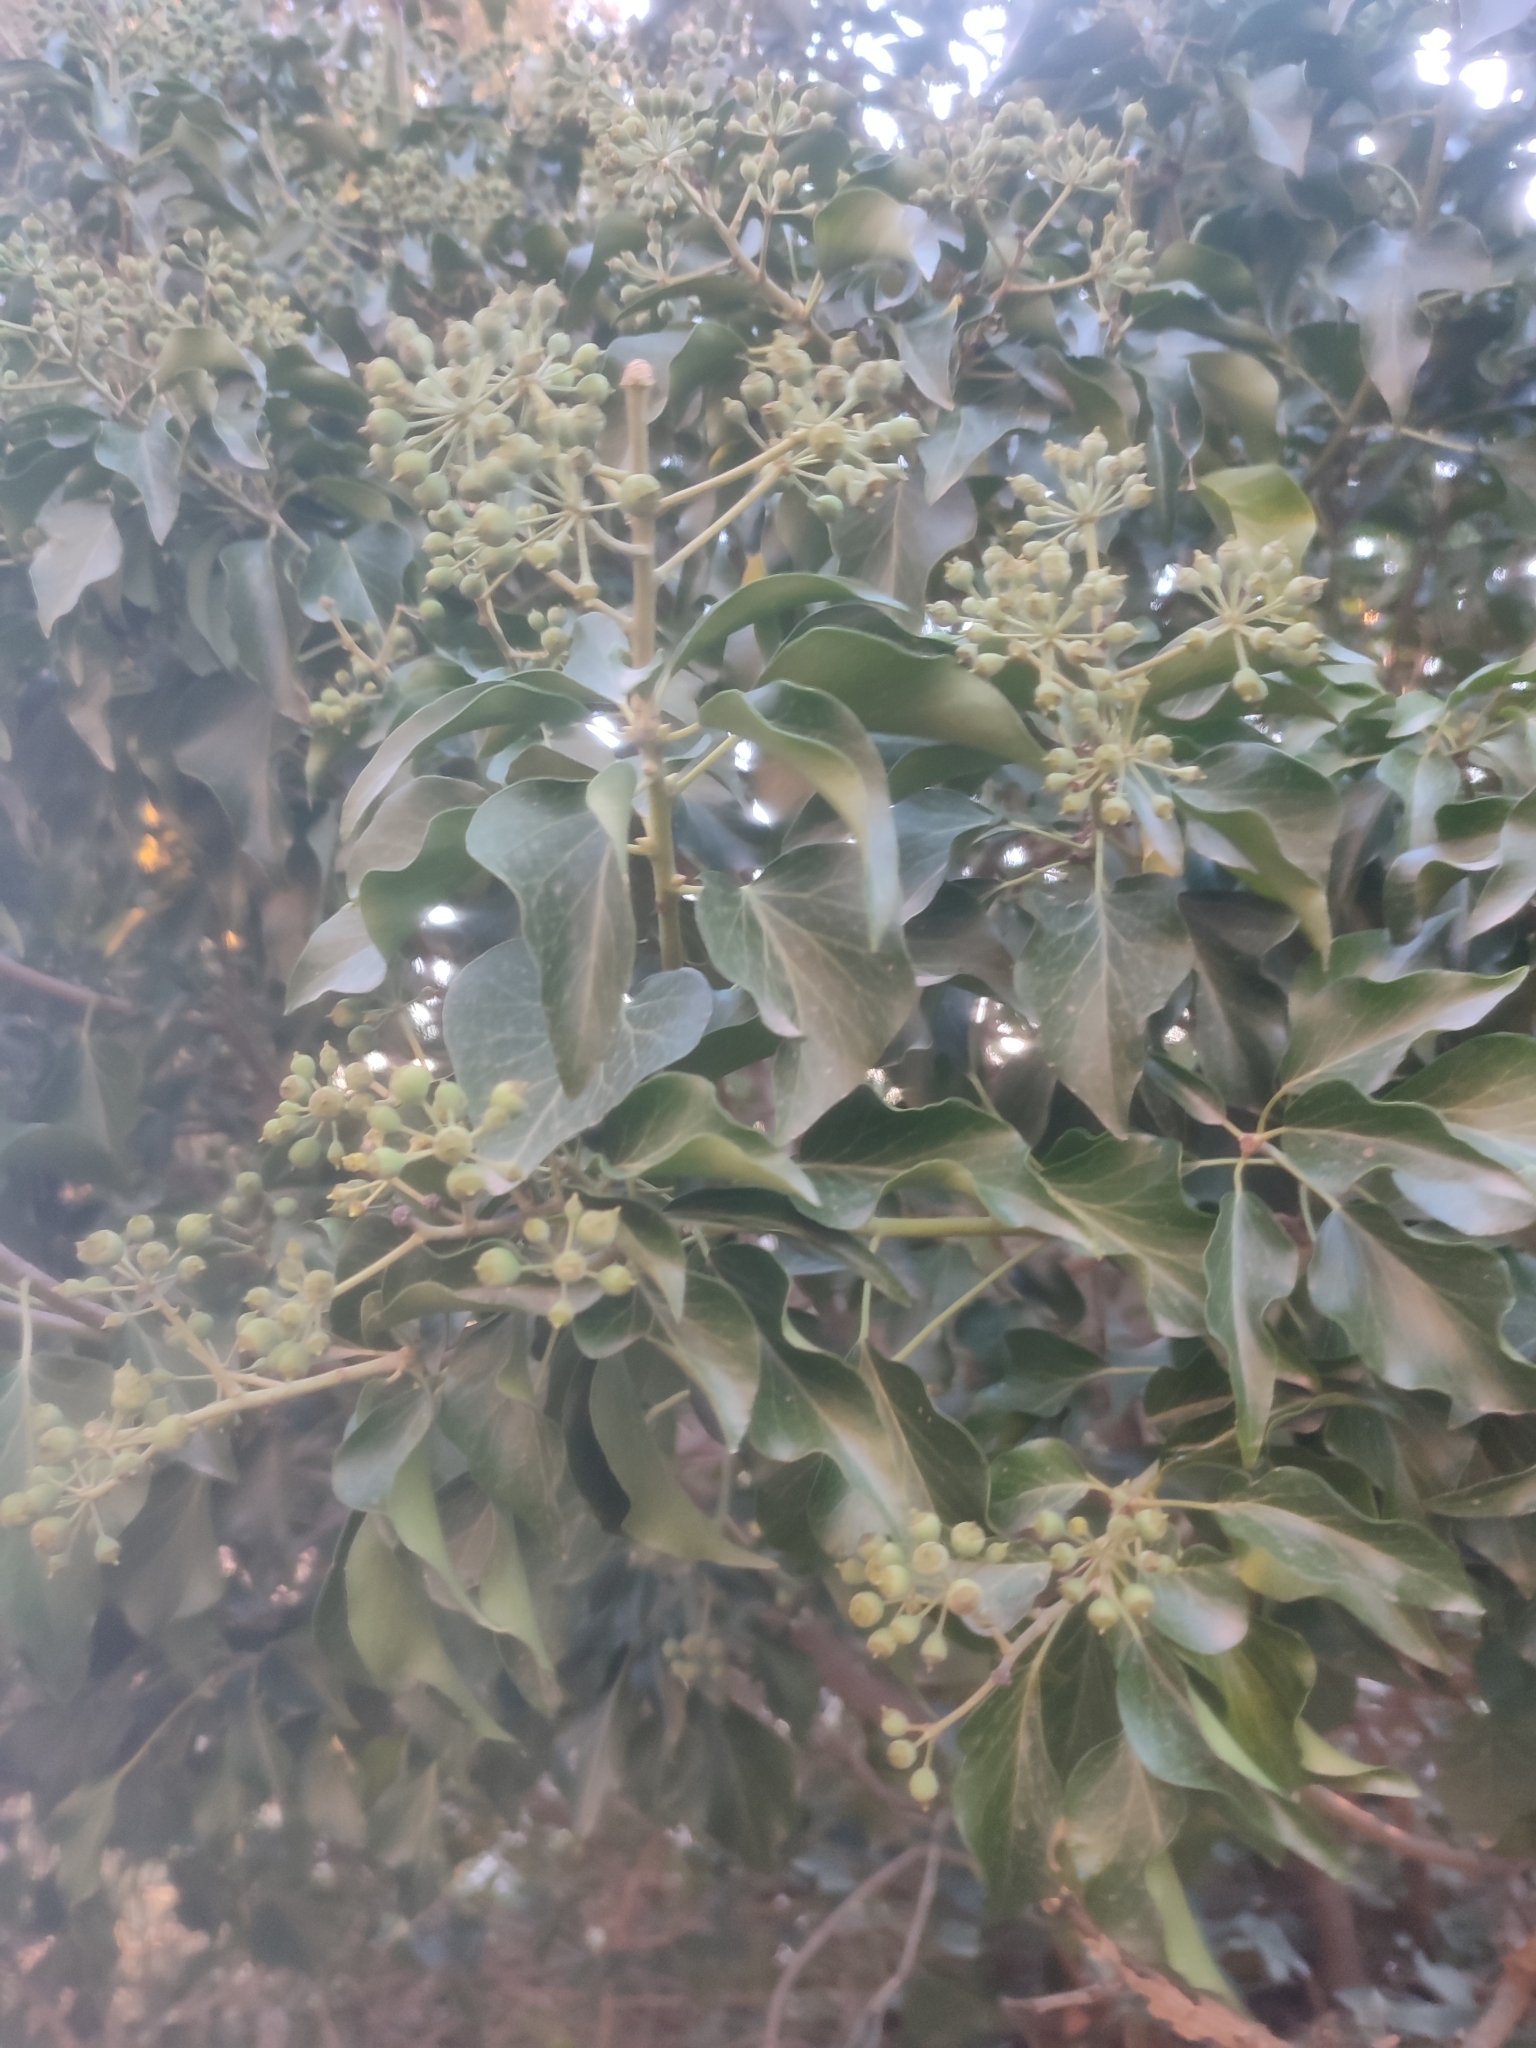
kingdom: Plantae
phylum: Tracheophyta
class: Magnoliopsida
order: Apiales
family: Araliaceae
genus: Hedera
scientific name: Hedera helix
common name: Ivy
